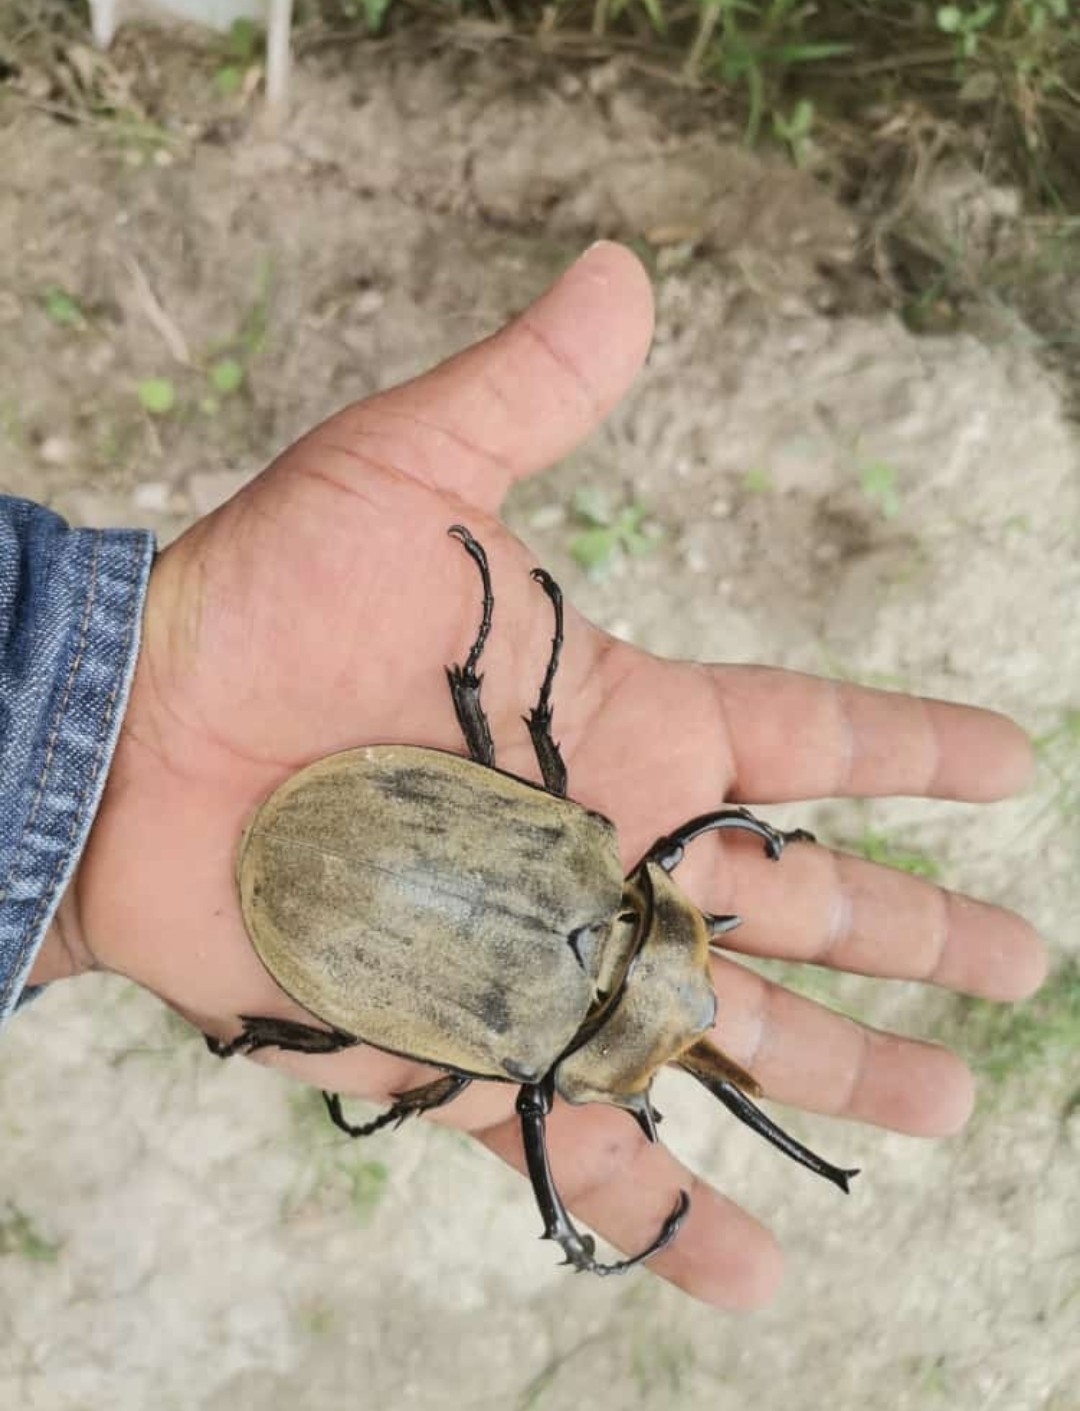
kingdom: Animalia
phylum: Arthropoda
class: Insecta
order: Coleoptera
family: Scarabaeidae
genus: Megasoma
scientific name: Megasoma elephas
